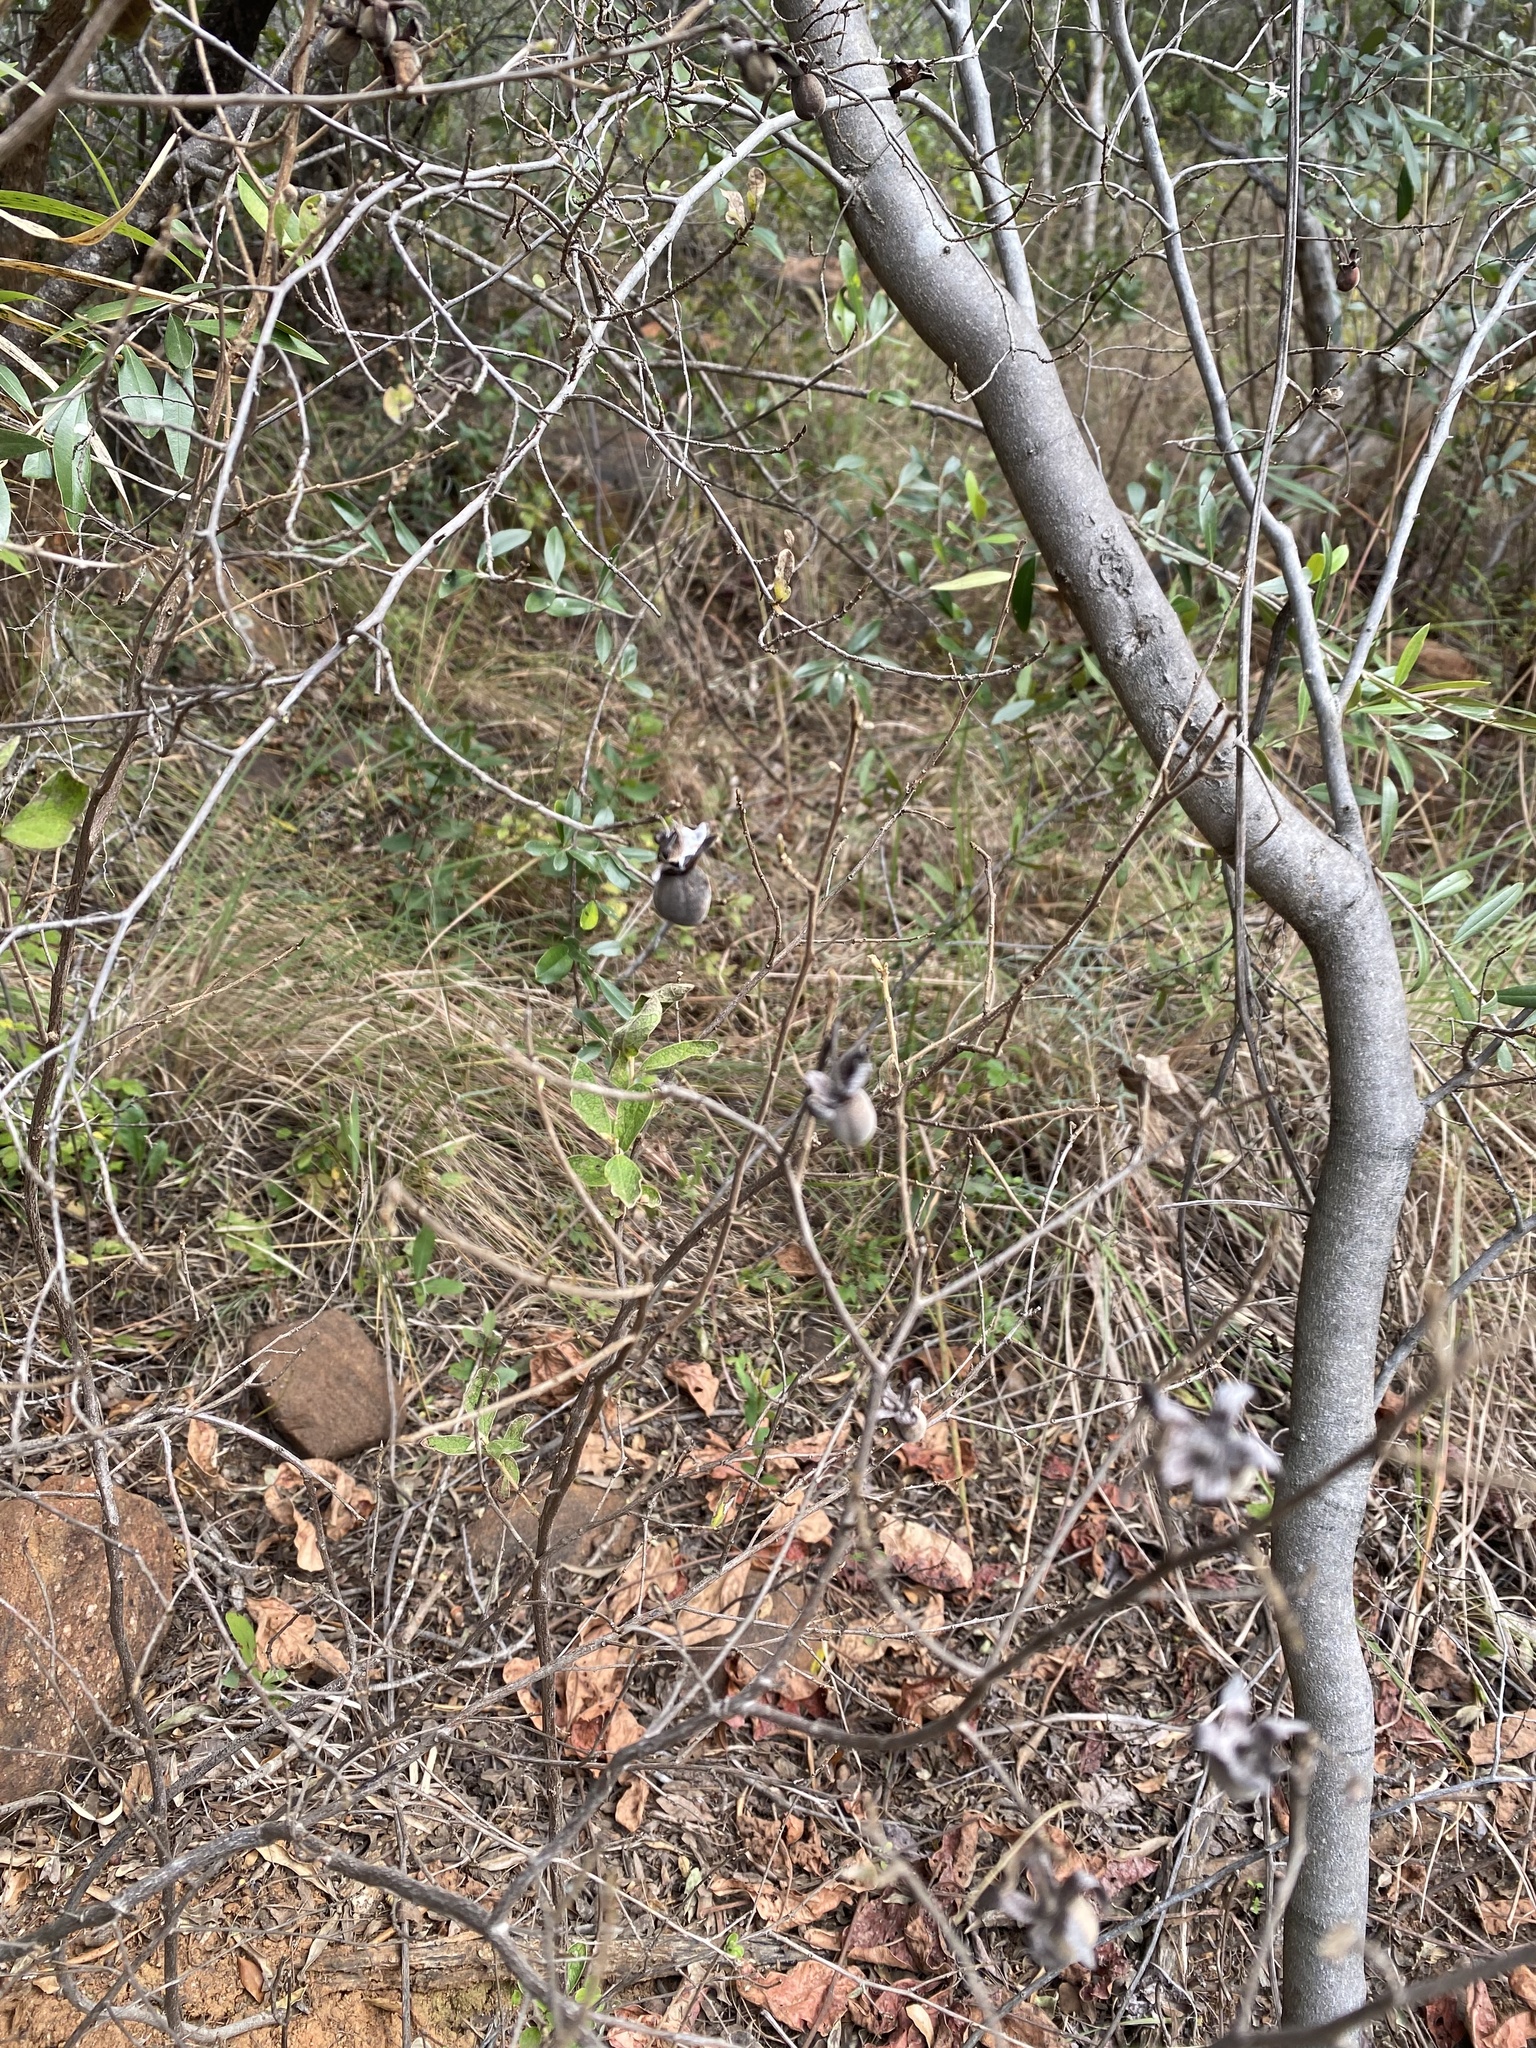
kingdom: Plantae
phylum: Tracheophyta
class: Magnoliopsida
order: Ericales
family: Ebenaceae
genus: Diospyros
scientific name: Diospyros lycioides
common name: Red star apple
